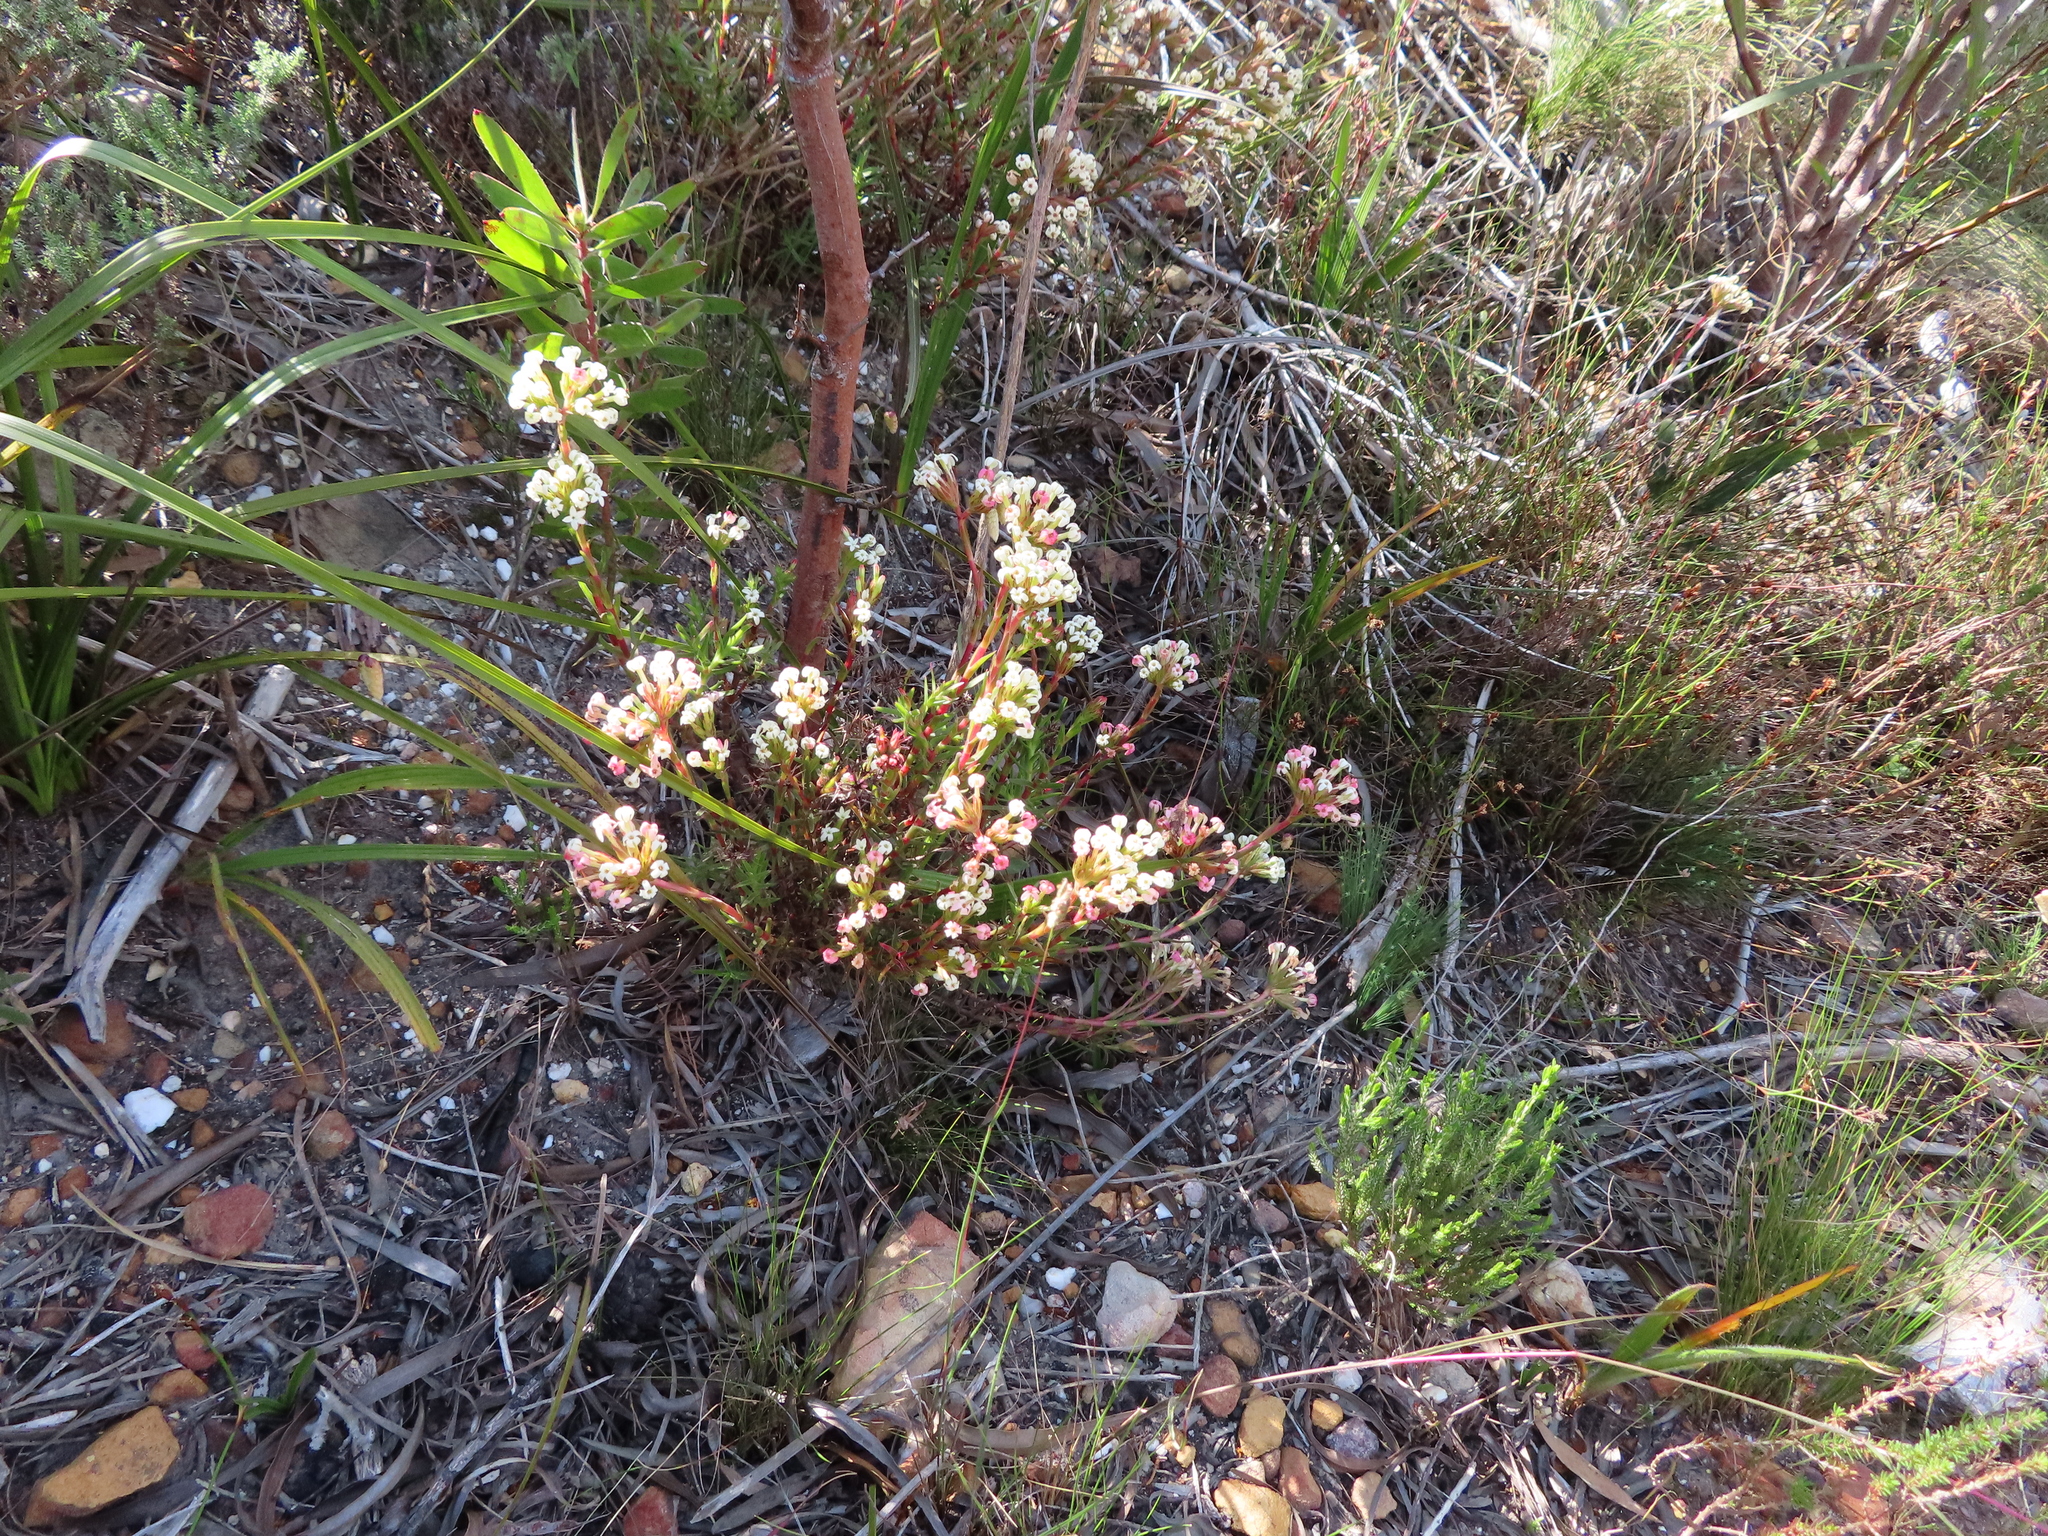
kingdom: Plantae
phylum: Tracheophyta
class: Magnoliopsida
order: Saxifragales
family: Crassulaceae
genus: Crassula
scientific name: Crassula fascicularis
